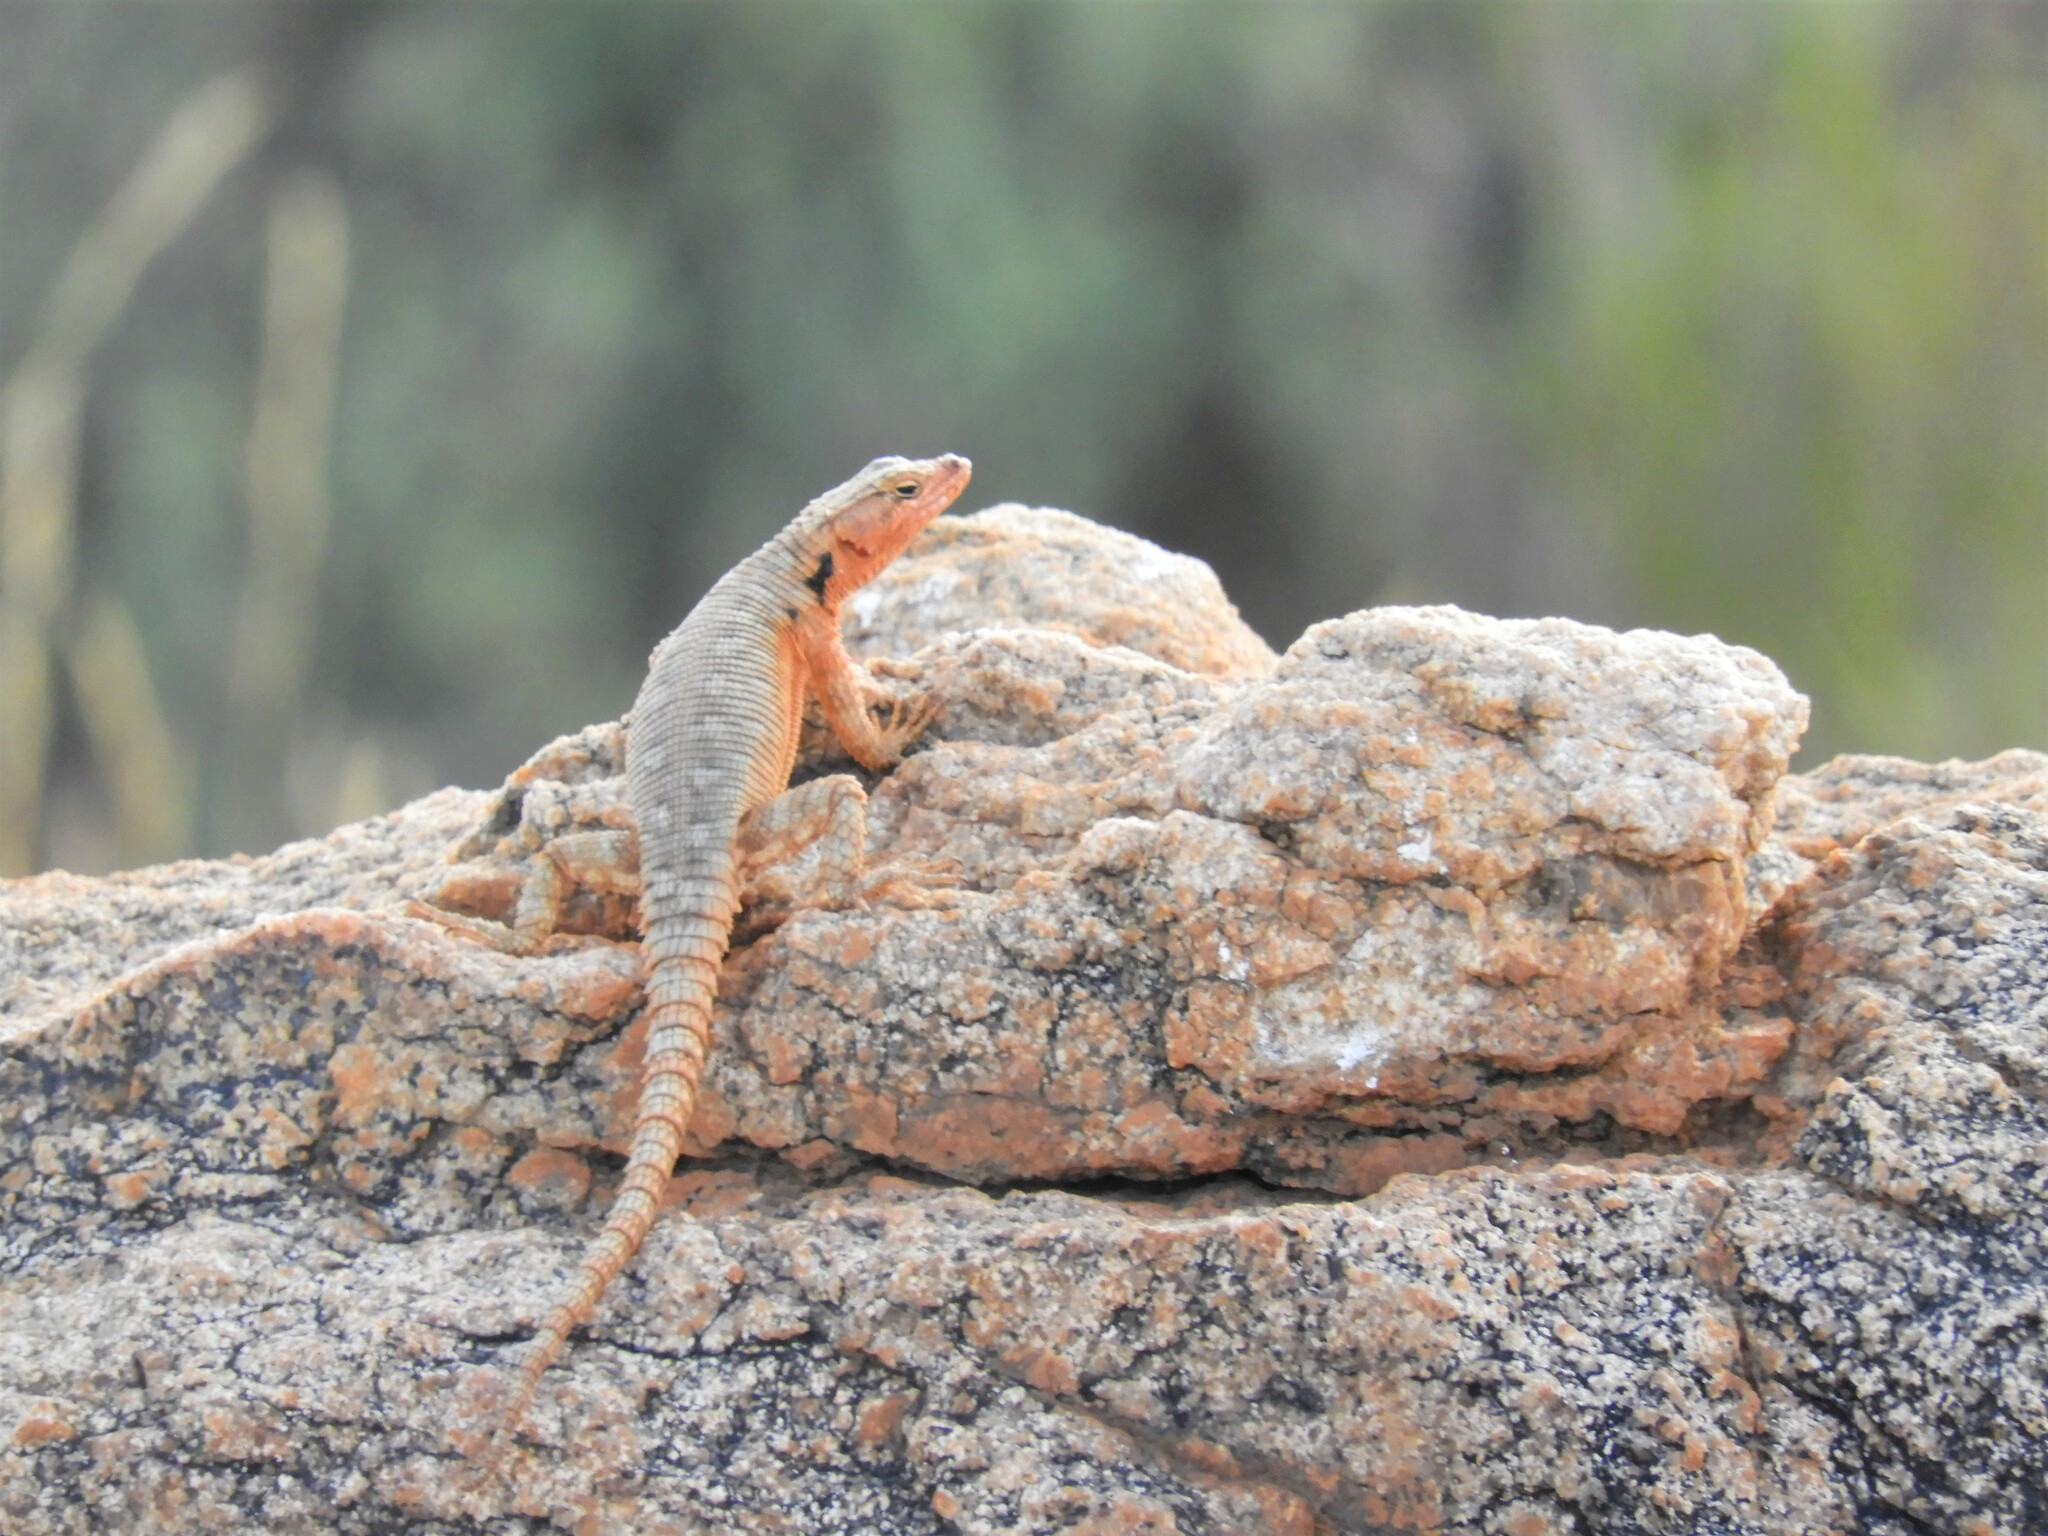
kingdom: Animalia
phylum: Chordata
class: Squamata
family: Cordylidae
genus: Karusasaurus
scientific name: Karusasaurus polyzonus
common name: Karoo girdled lizard
